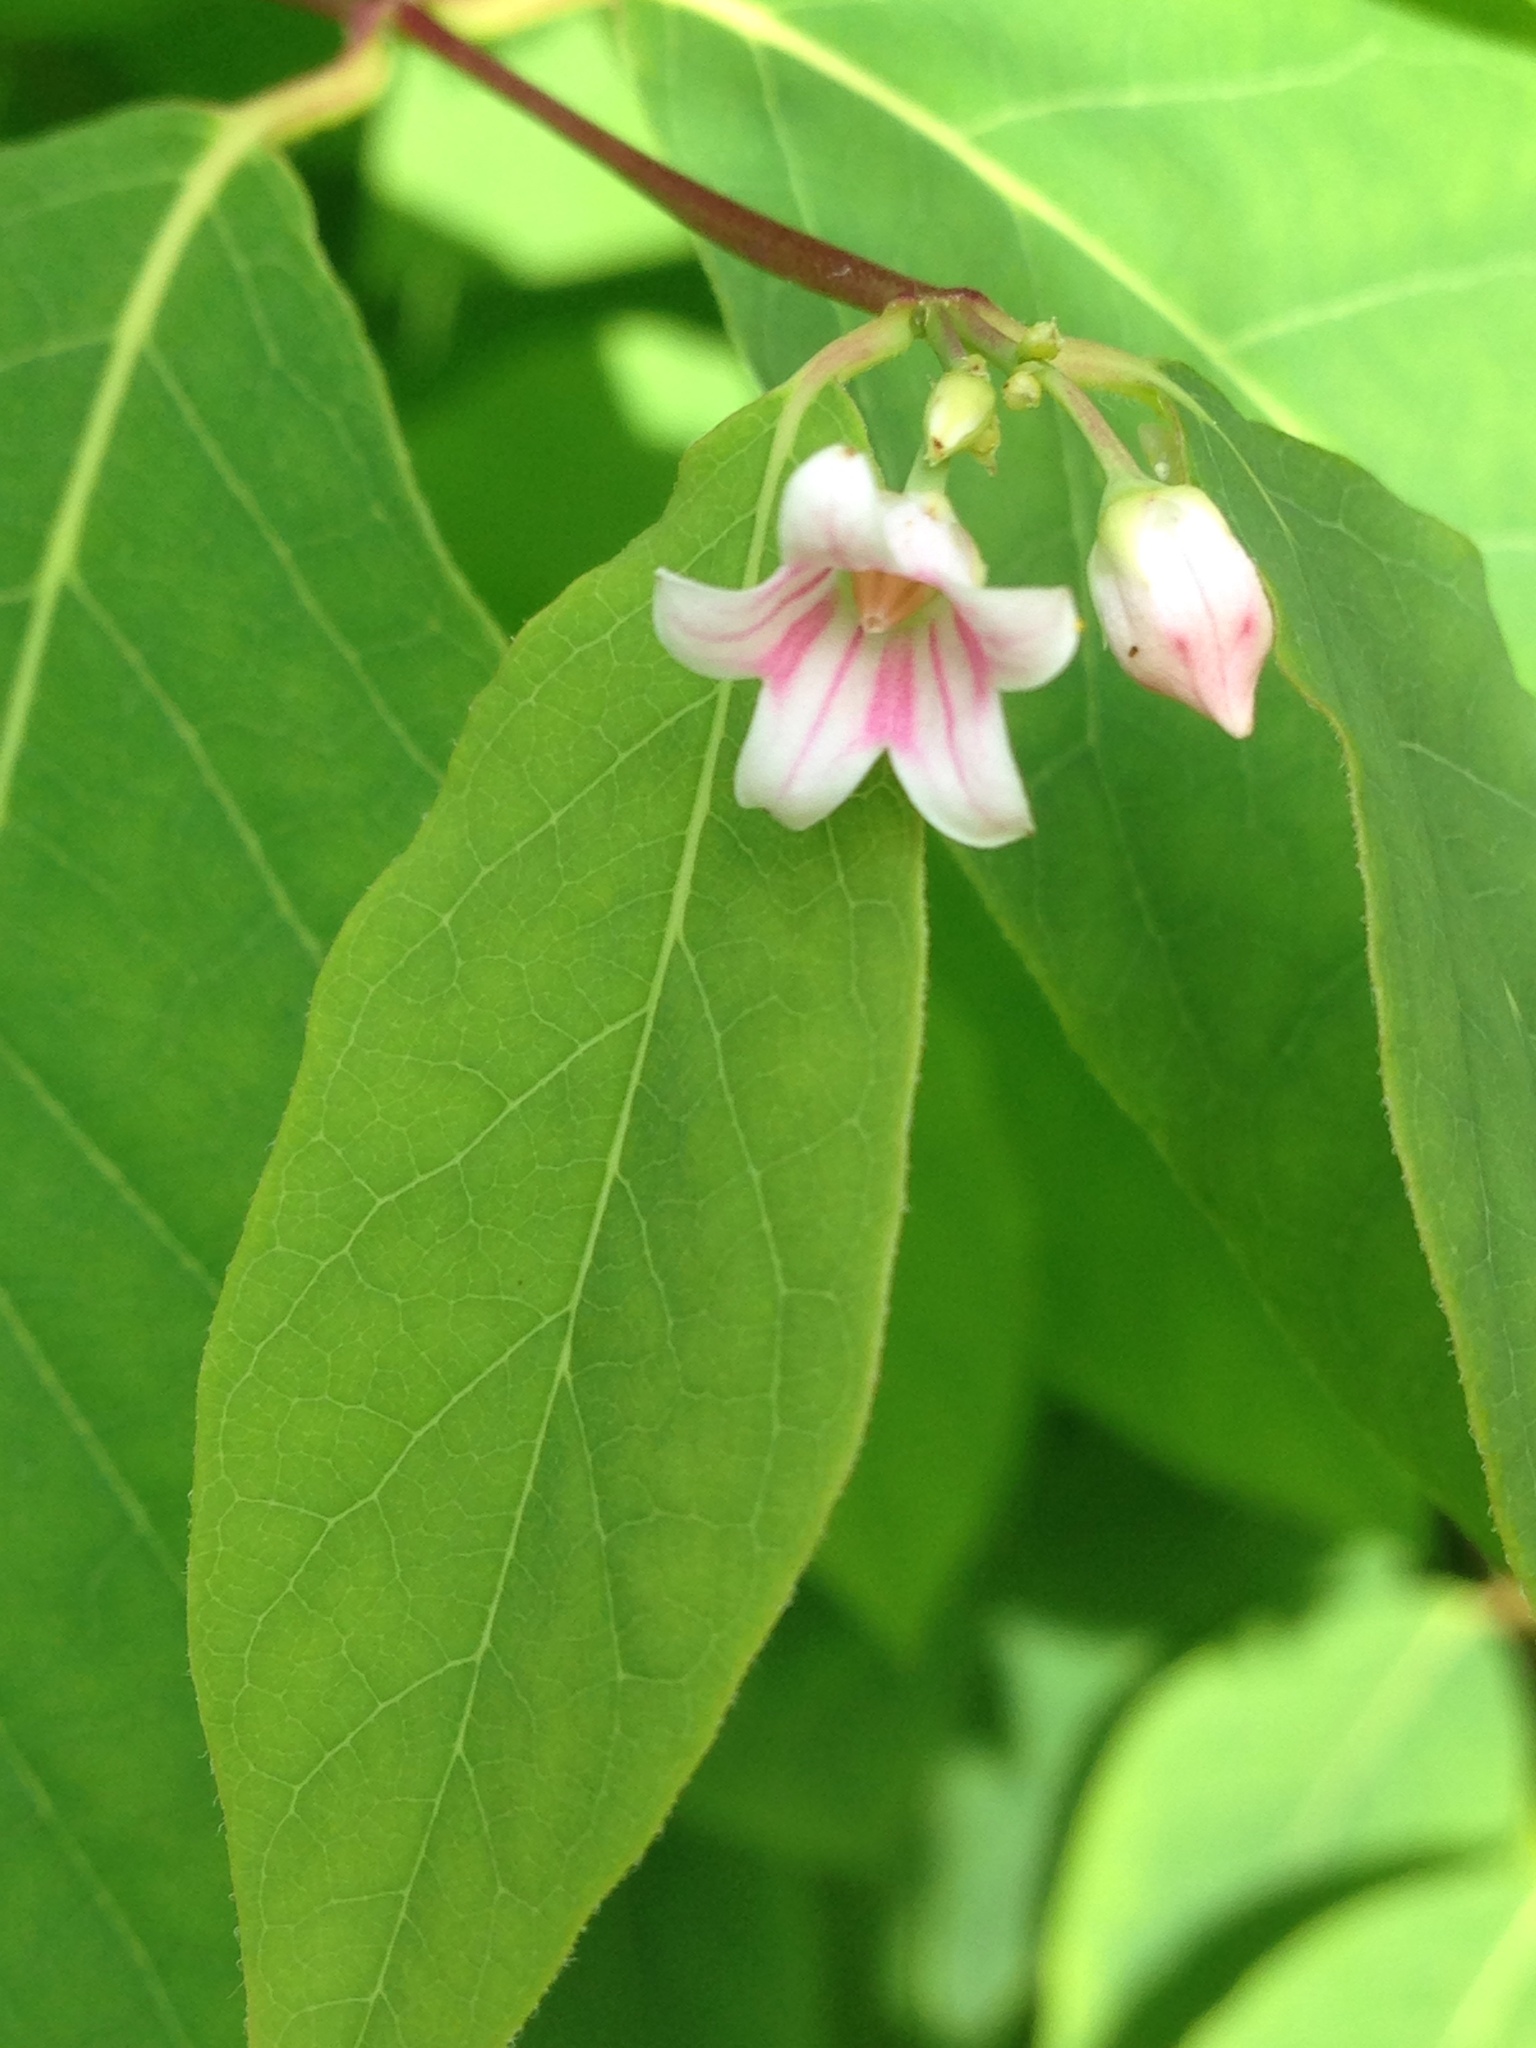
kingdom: Plantae
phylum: Tracheophyta
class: Magnoliopsida
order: Gentianales
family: Apocynaceae
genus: Apocynum
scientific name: Apocynum androsaemifolium
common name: Spreading dogbane
